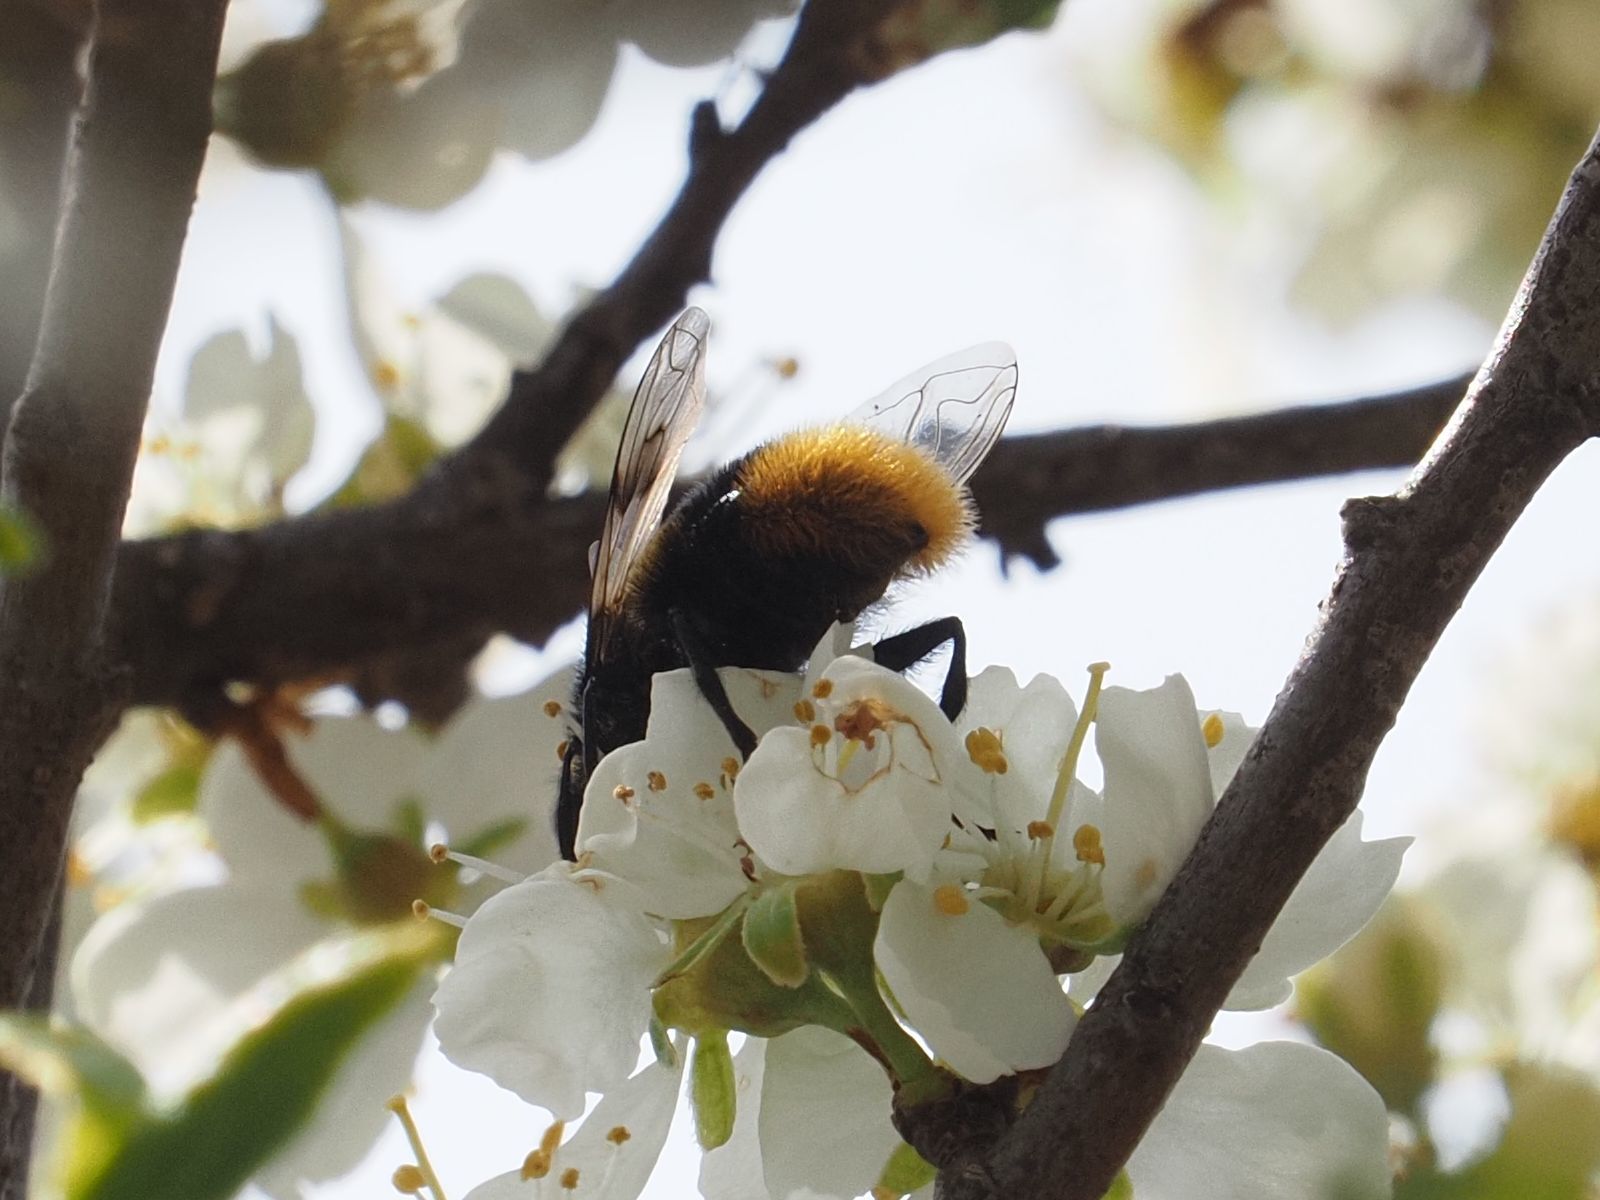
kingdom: Animalia
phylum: Arthropoda
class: Insecta
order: Diptera
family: Syrphidae
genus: Mallota
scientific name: Mallota fuciformis
